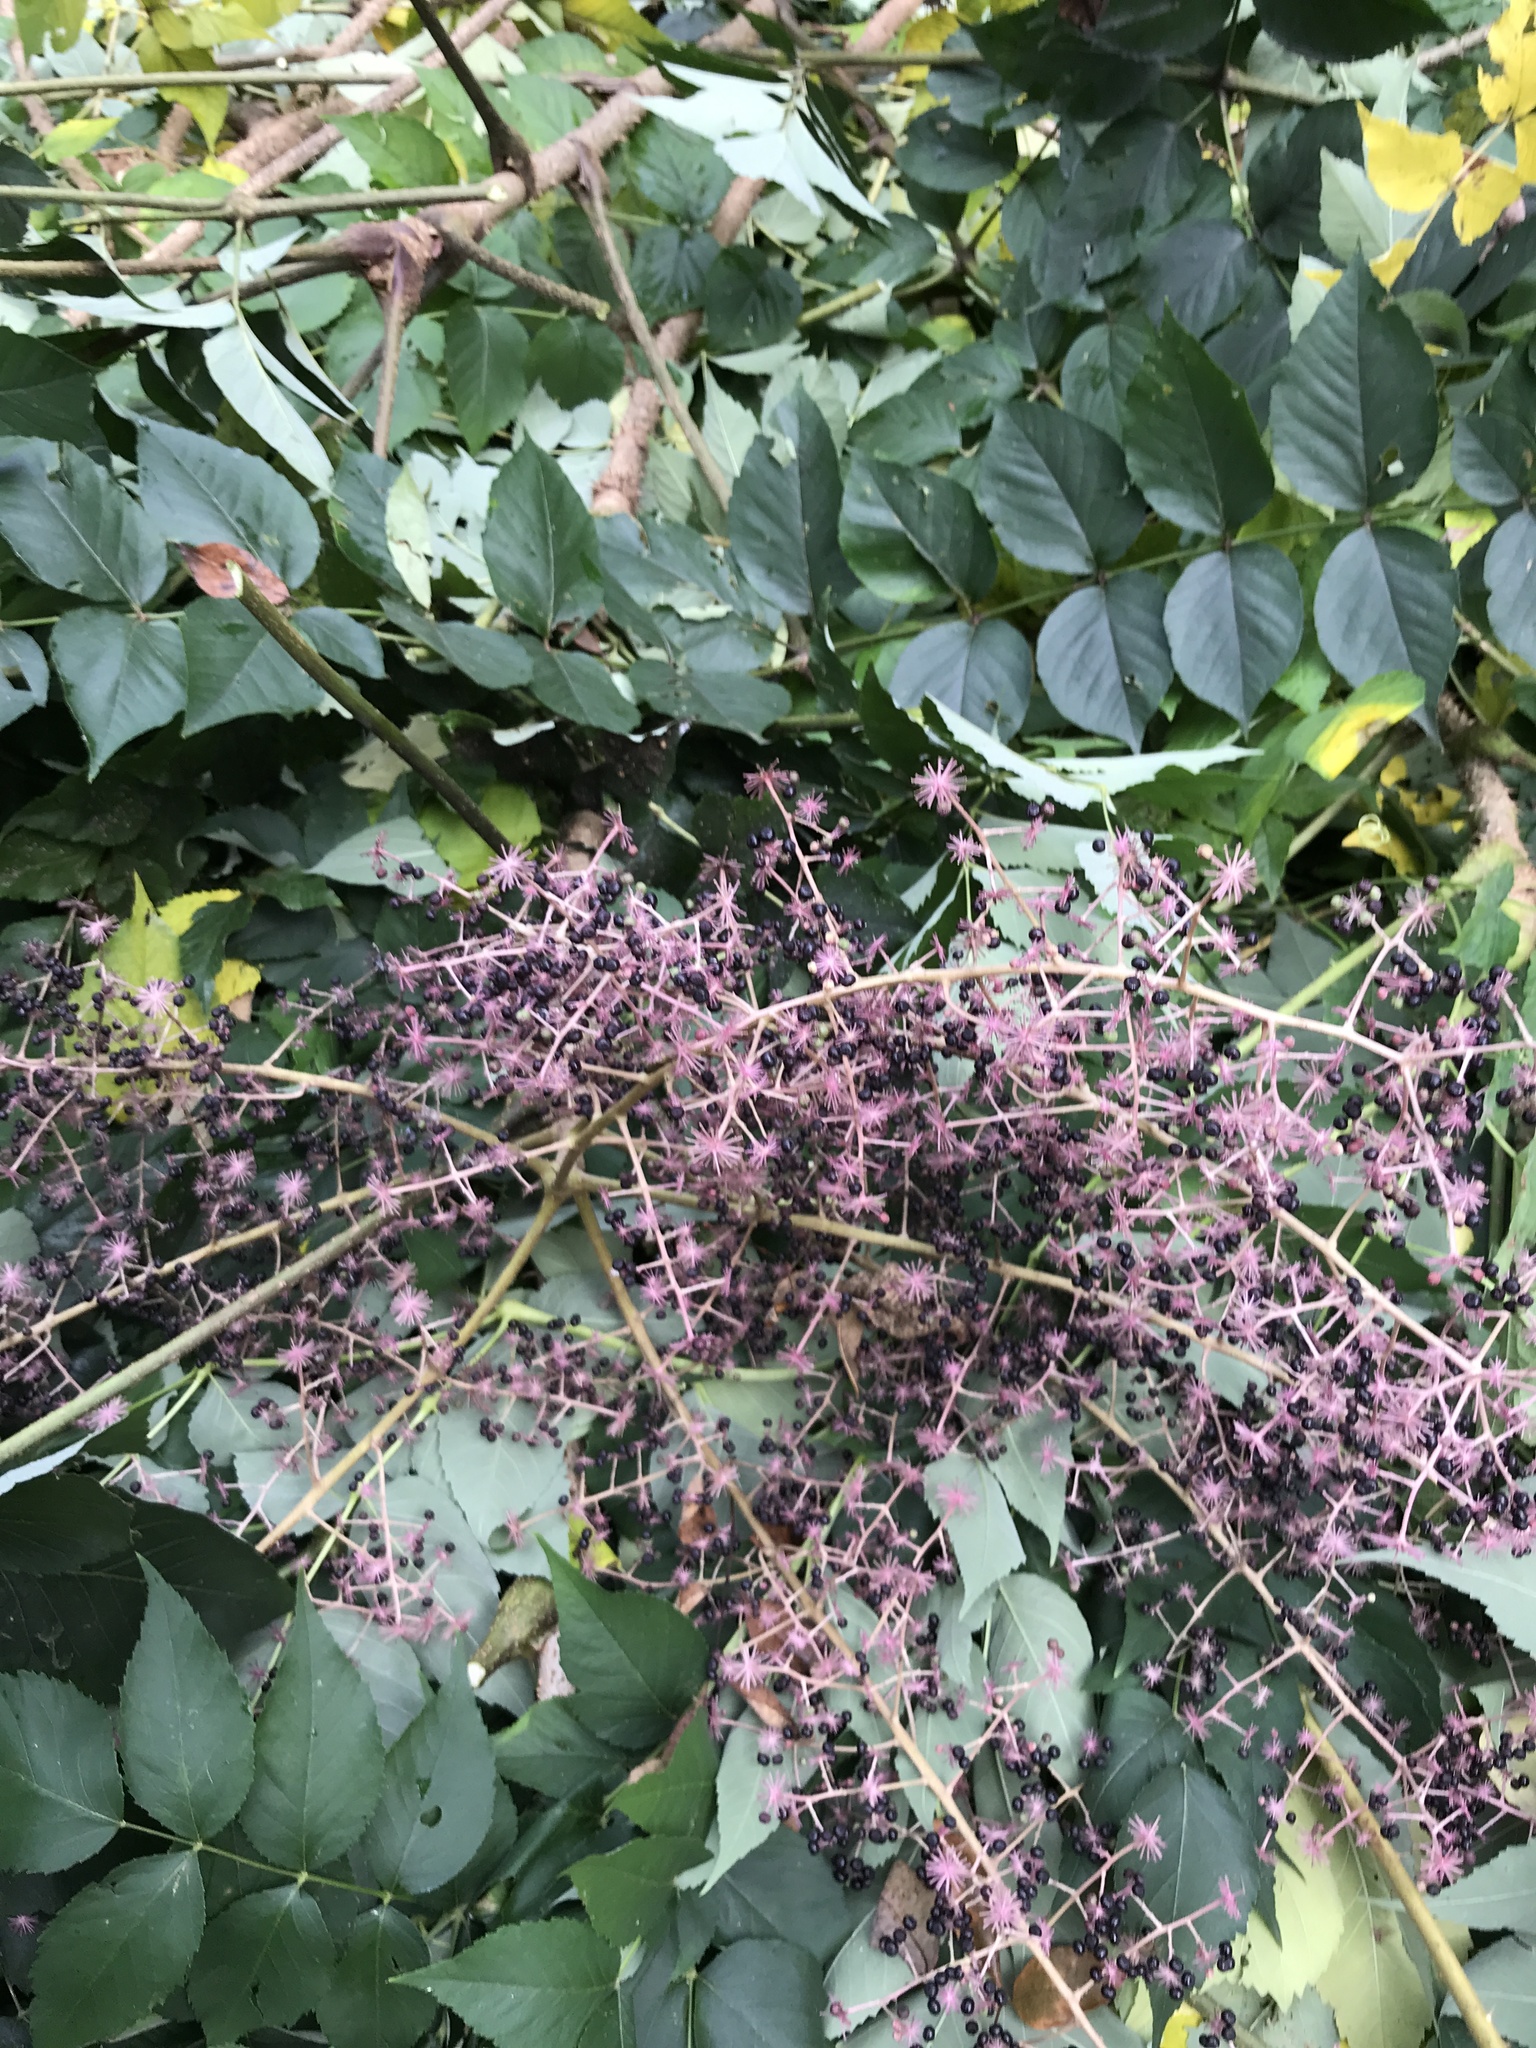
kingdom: Plantae
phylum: Tracheophyta
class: Magnoliopsida
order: Apiales
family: Araliaceae
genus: Aralia
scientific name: Aralia elata
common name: Japanese angelica-tree
